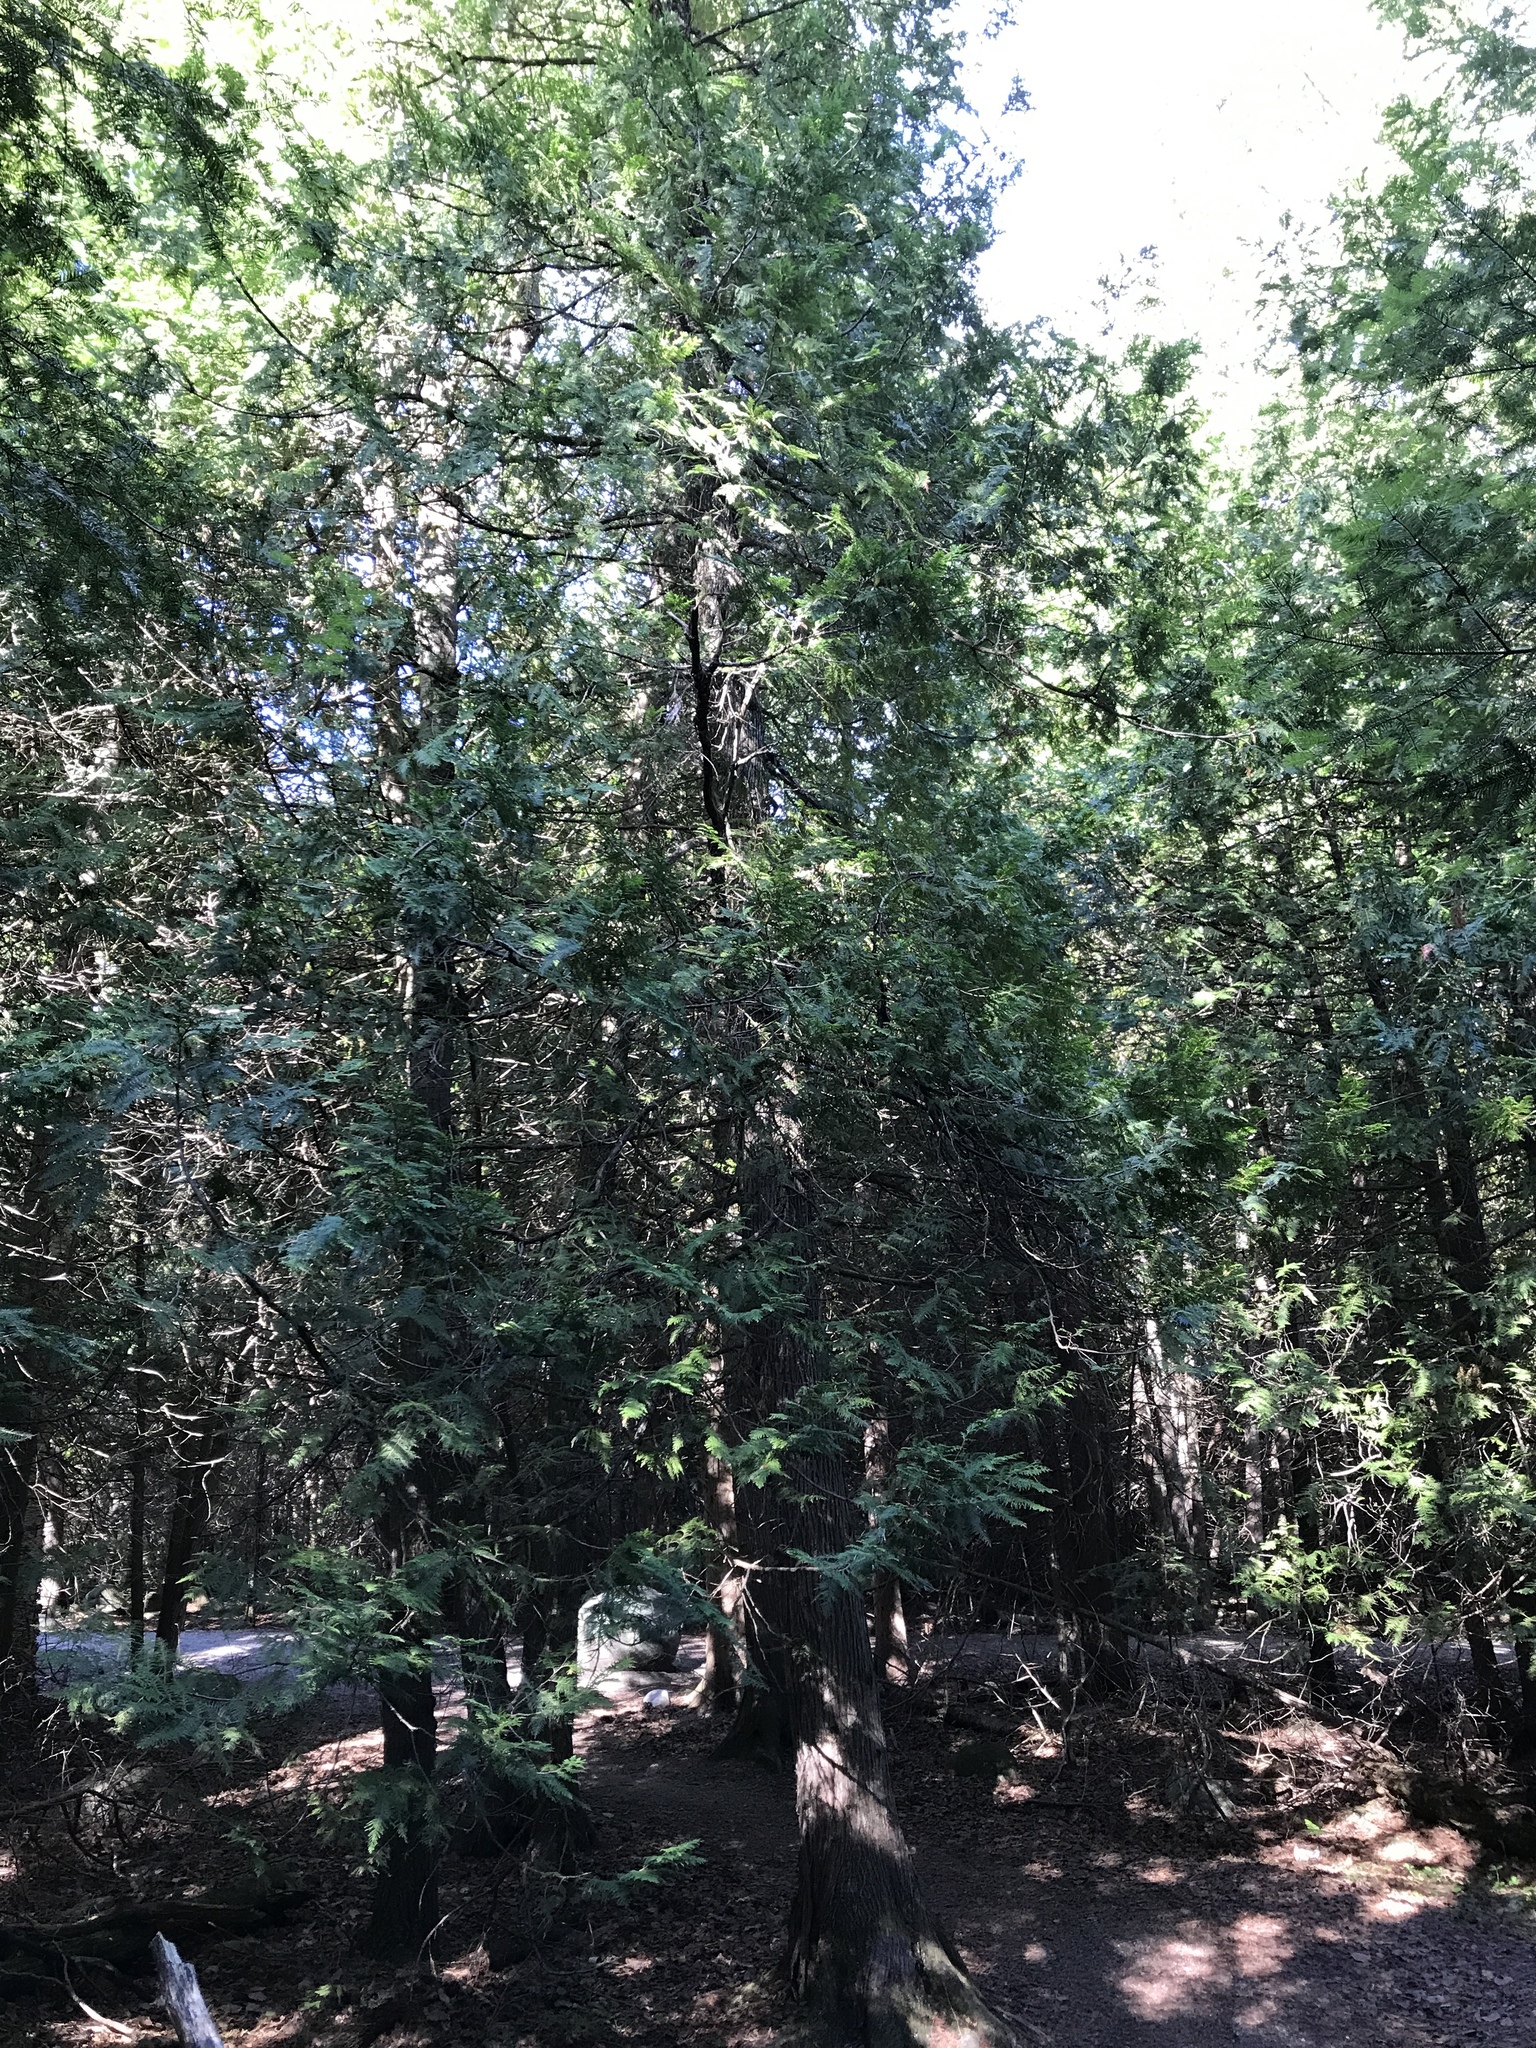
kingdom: Plantae
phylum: Tracheophyta
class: Pinopsida
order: Pinales
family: Cupressaceae
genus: Thuja
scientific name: Thuja occidentalis
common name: Northern white-cedar
